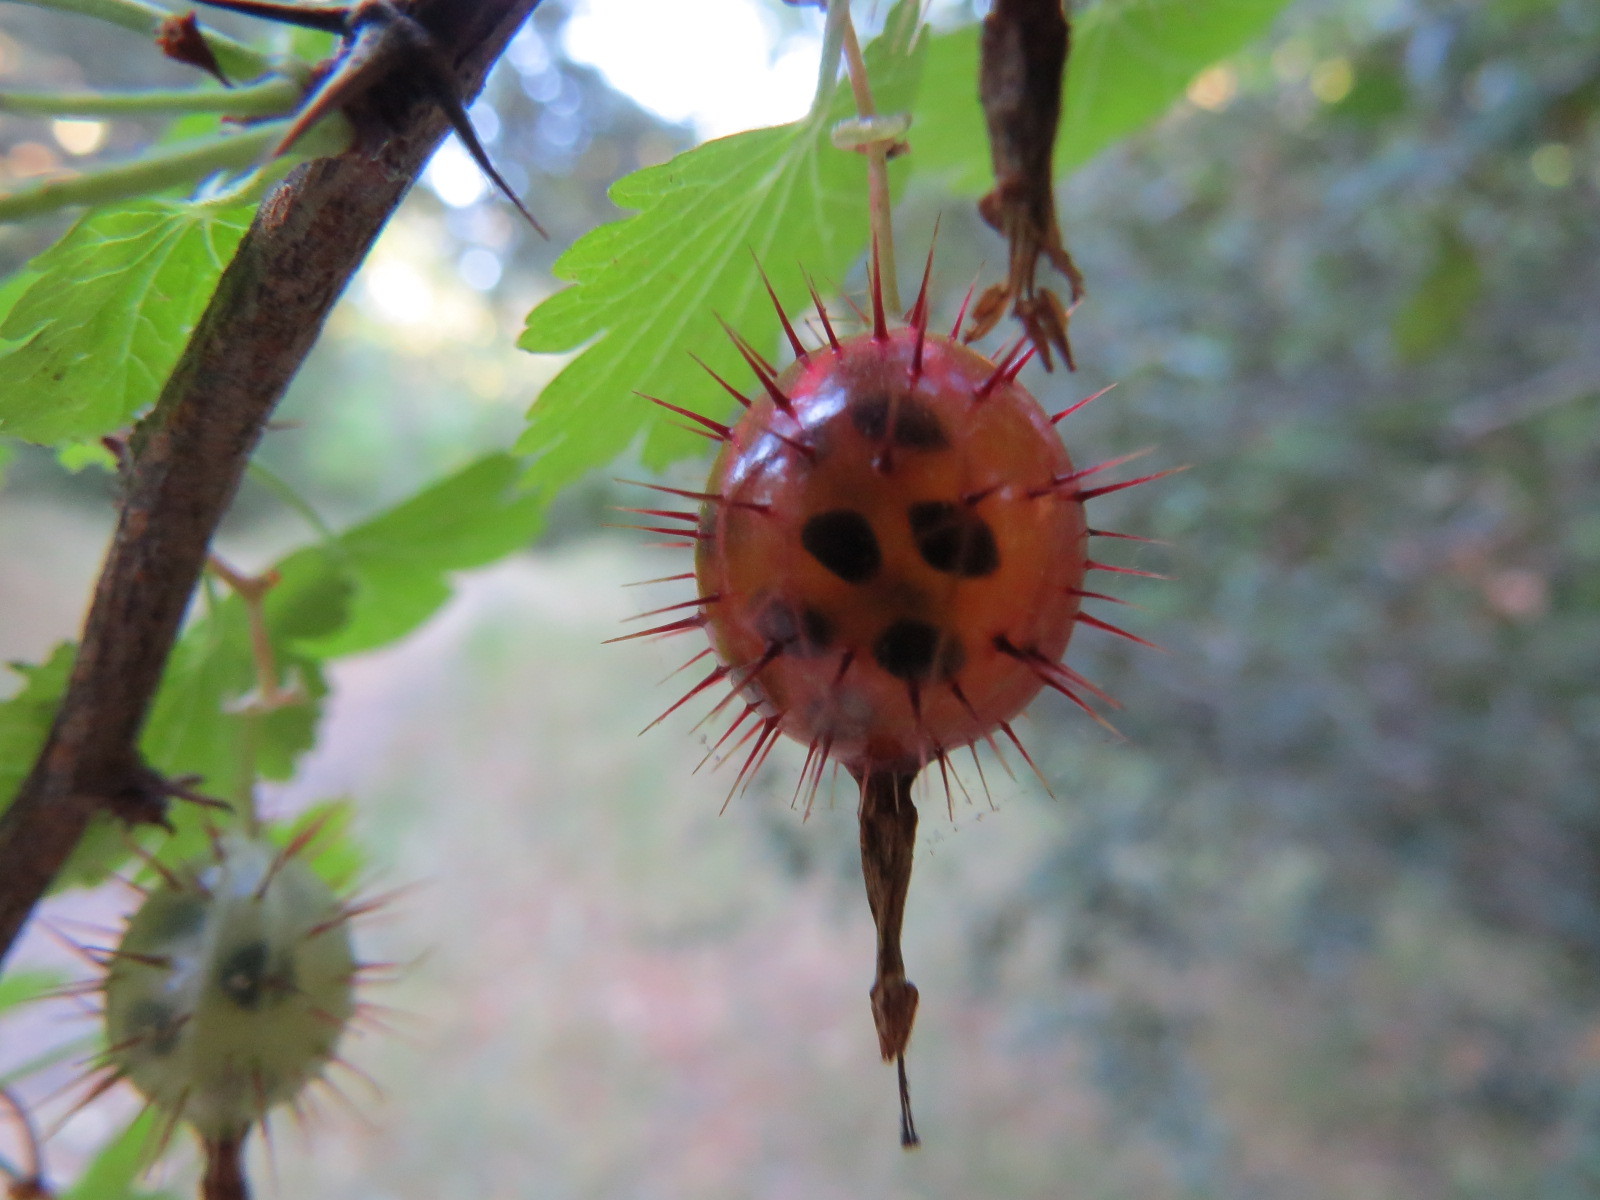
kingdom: Plantae
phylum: Tracheophyta
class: Magnoliopsida
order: Saxifragales
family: Grossulariaceae
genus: Ribes
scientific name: Ribes californicum
